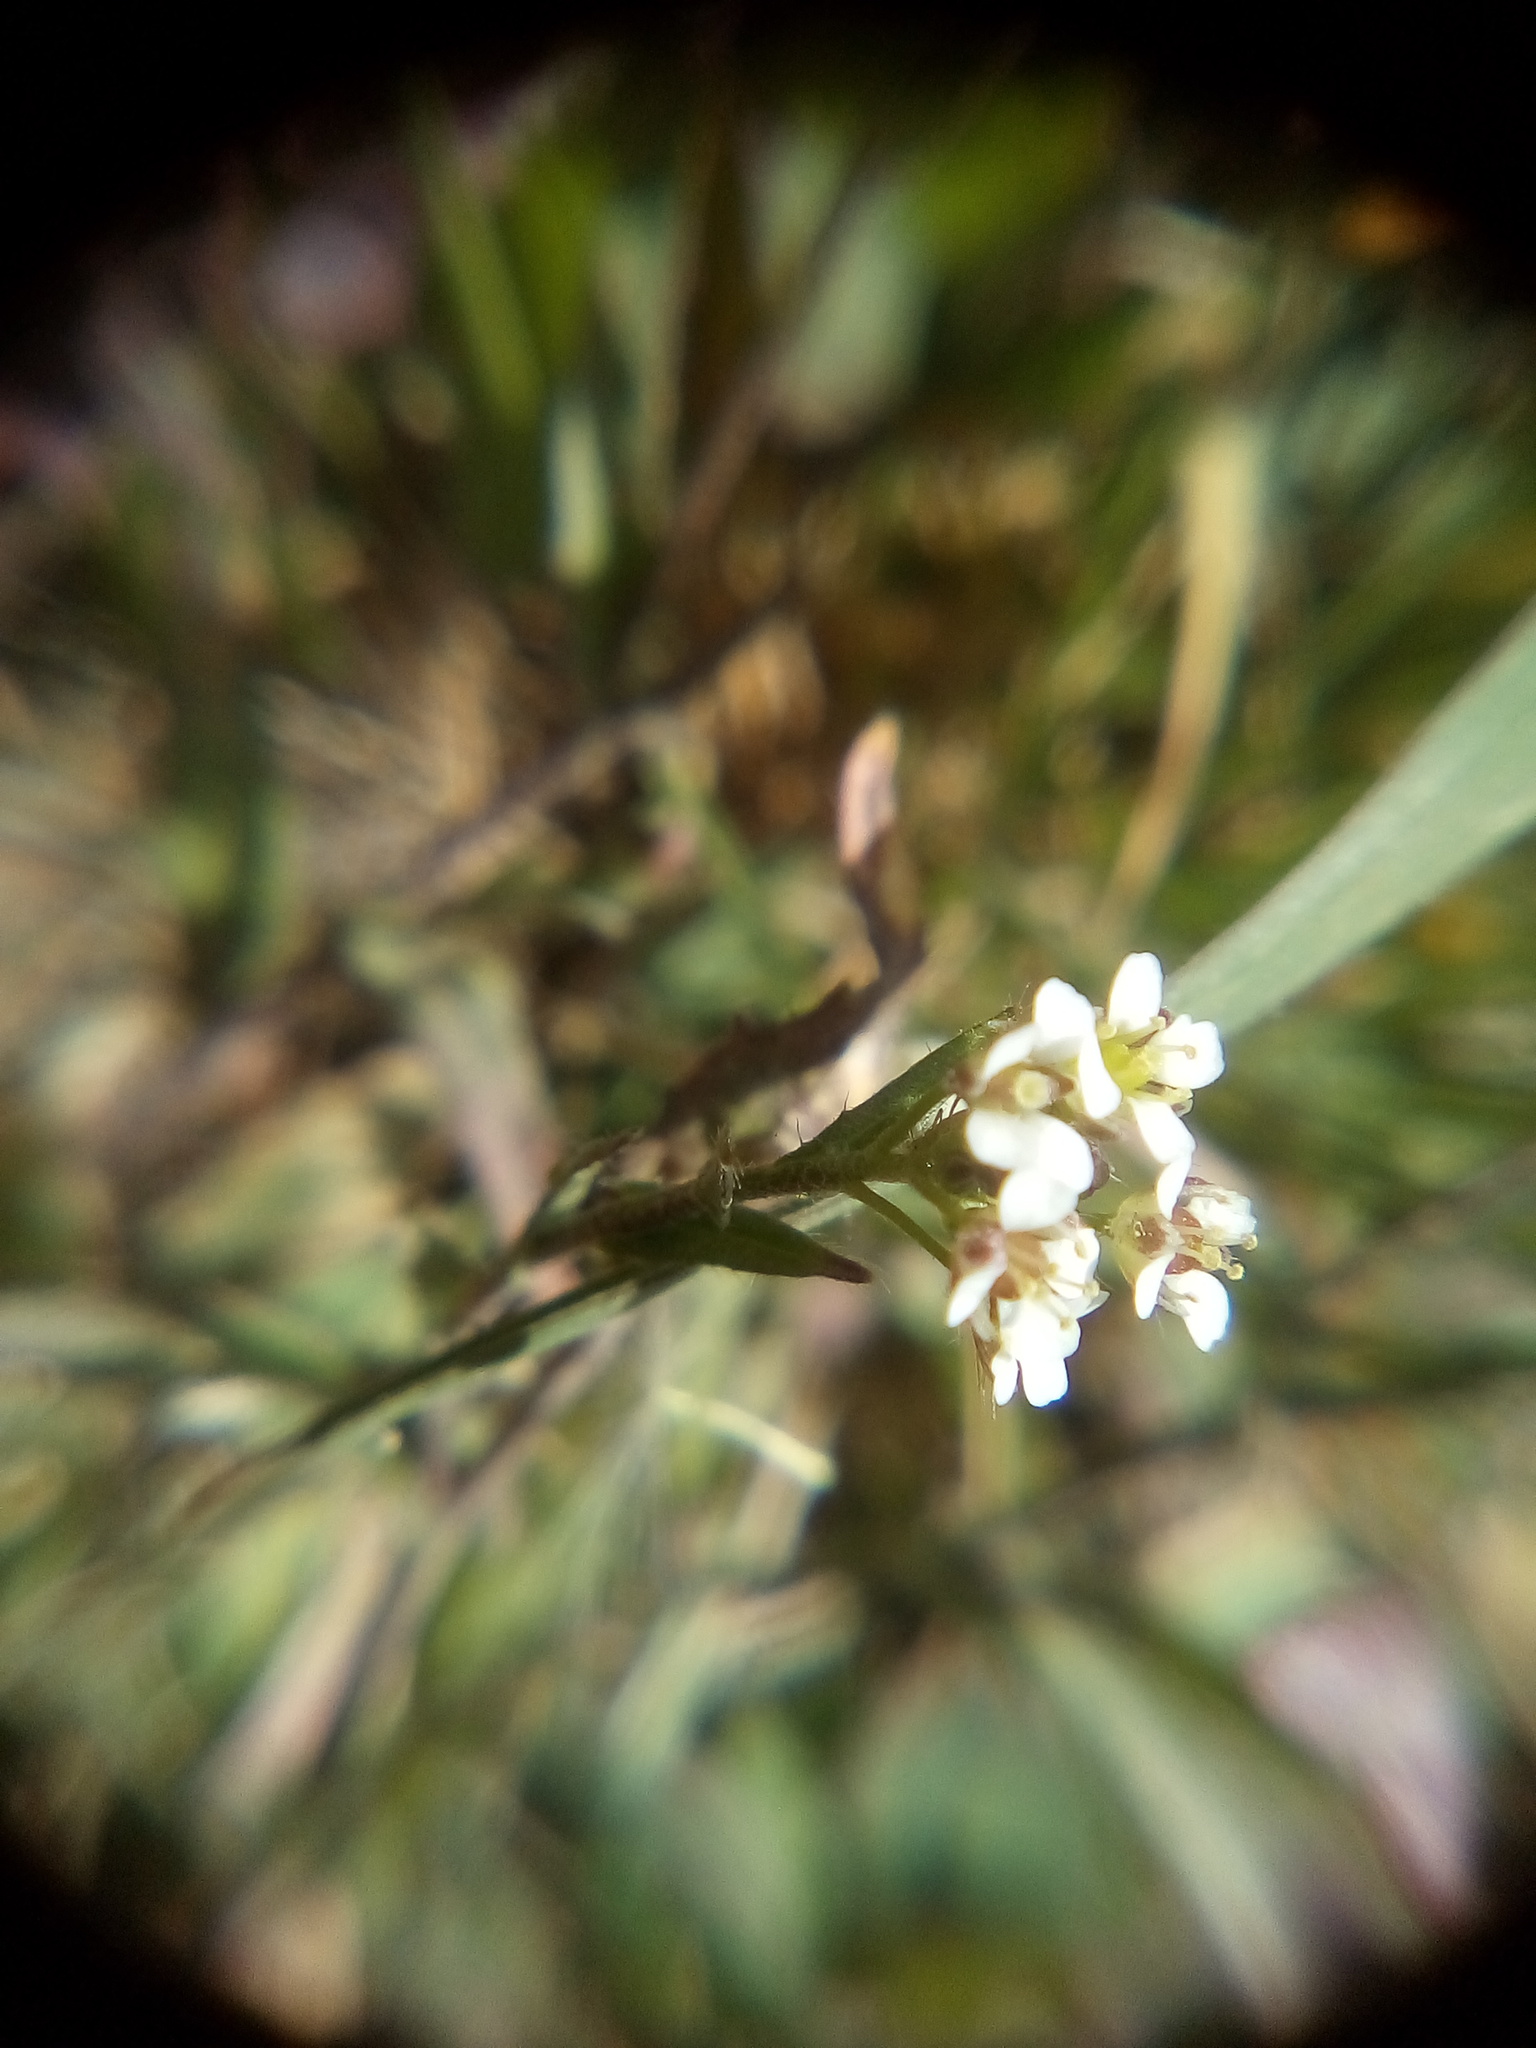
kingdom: Plantae
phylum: Tracheophyta
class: Magnoliopsida
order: Brassicales
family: Brassicaceae
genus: Capsella
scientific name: Capsella bursa-pastoris
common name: Shepherd's purse
